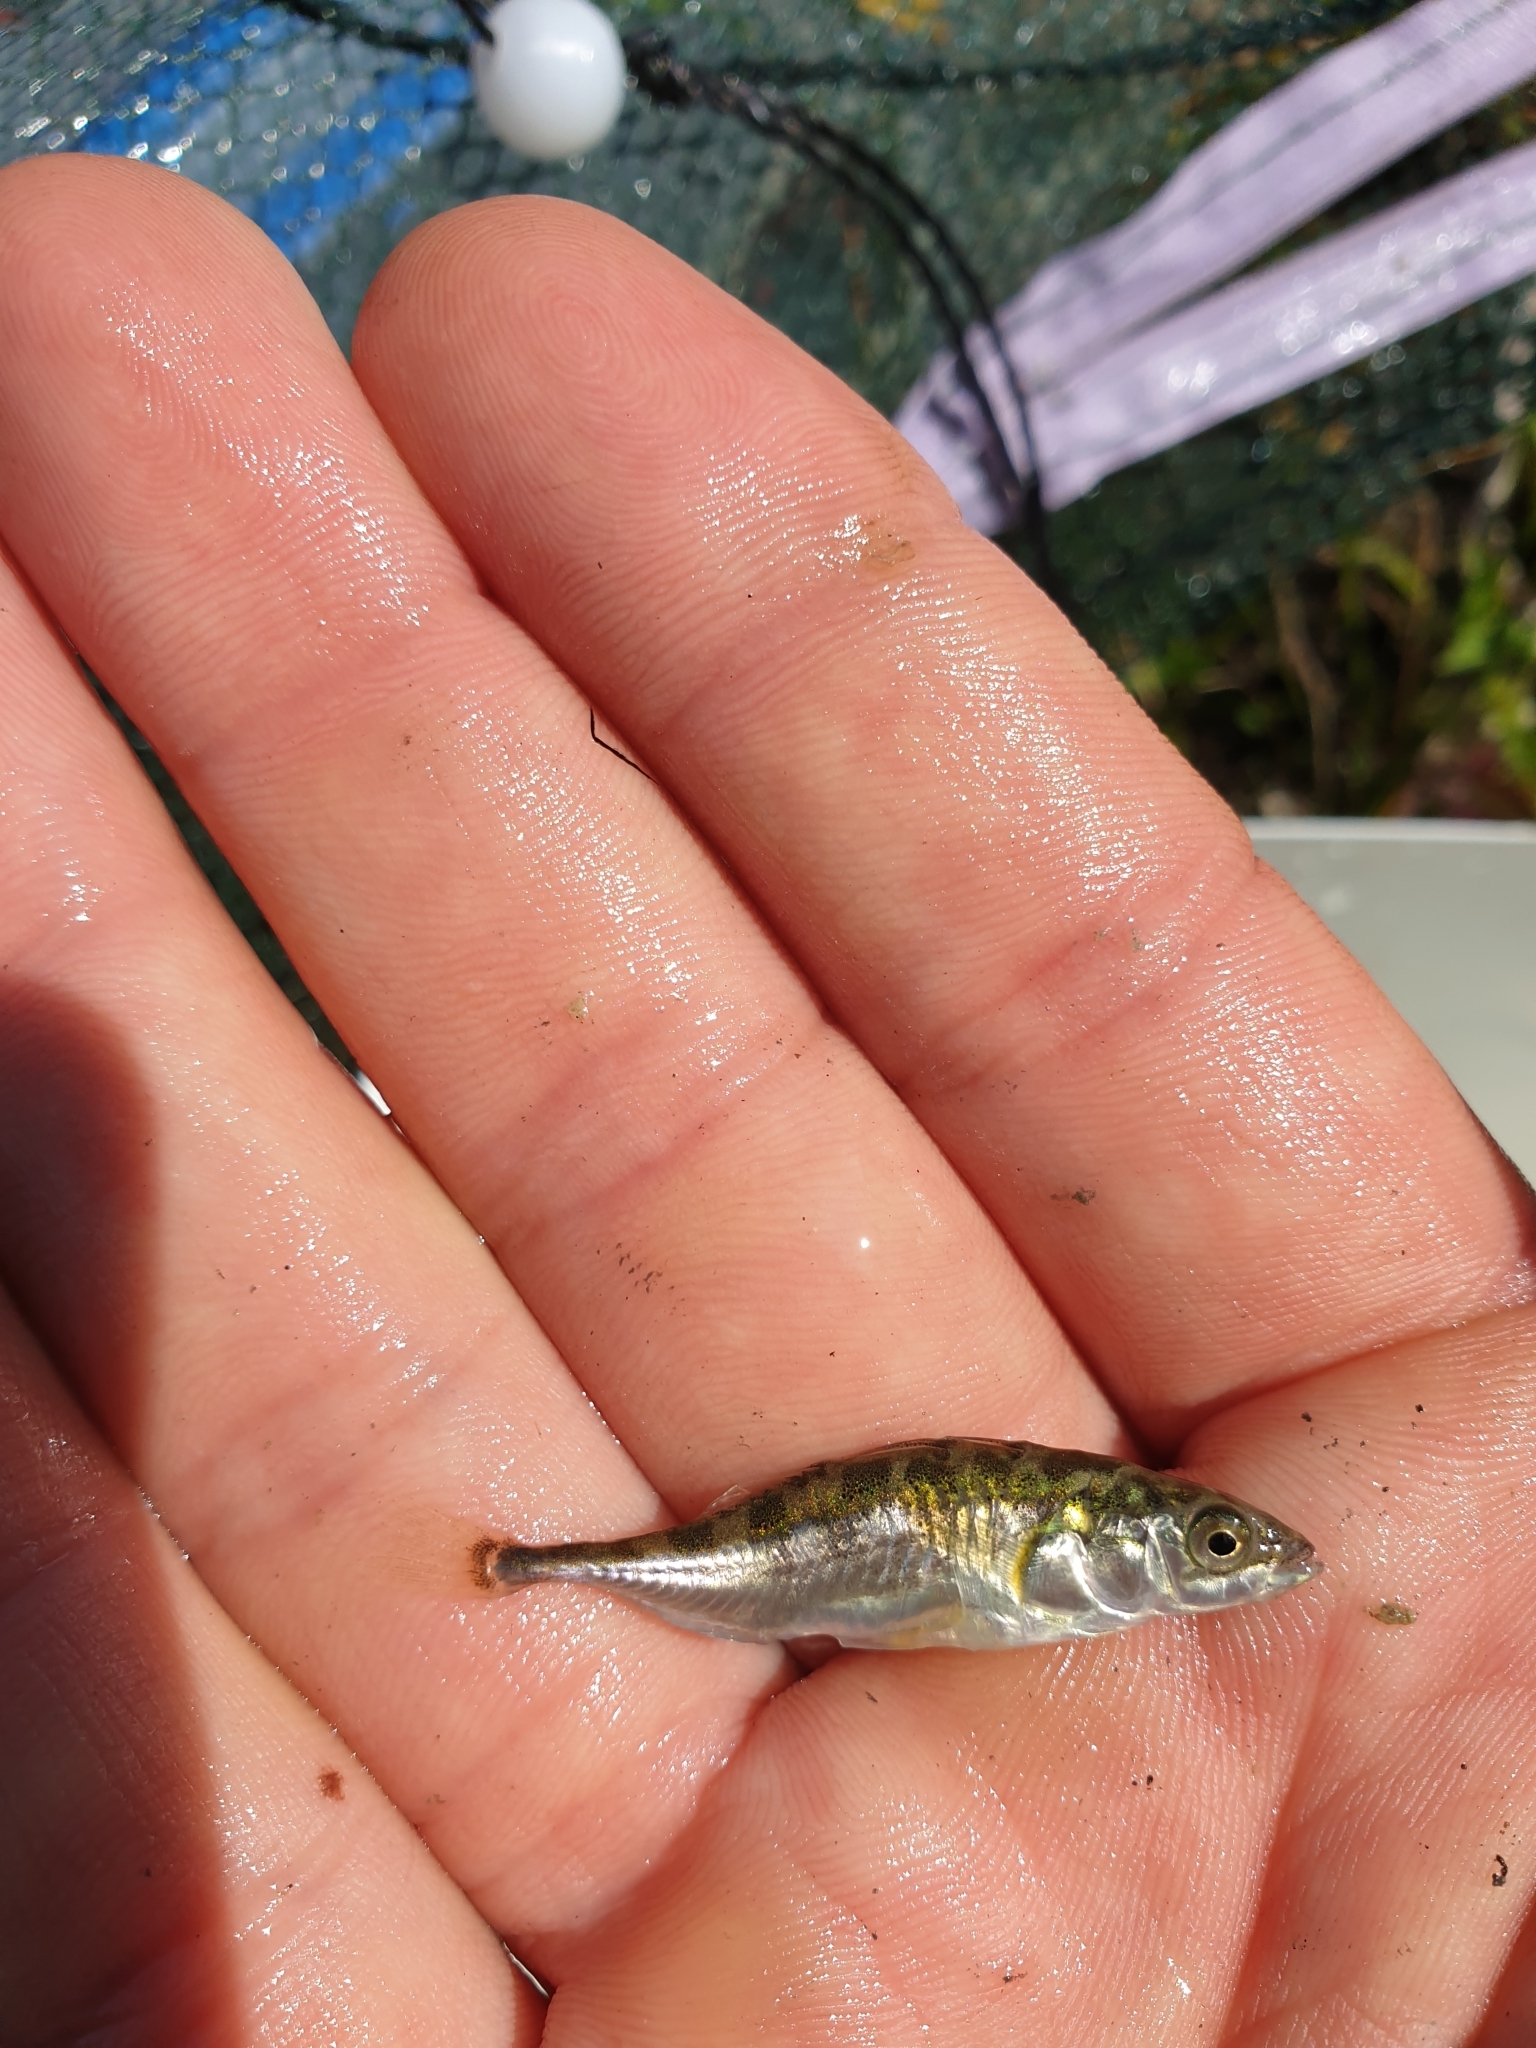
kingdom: Animalia
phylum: Chordata
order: Gasterosteiformes
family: Gasterosteidae
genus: Gasterosteus
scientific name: Gasterosteus aculeatus
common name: Three-spined stickleback
